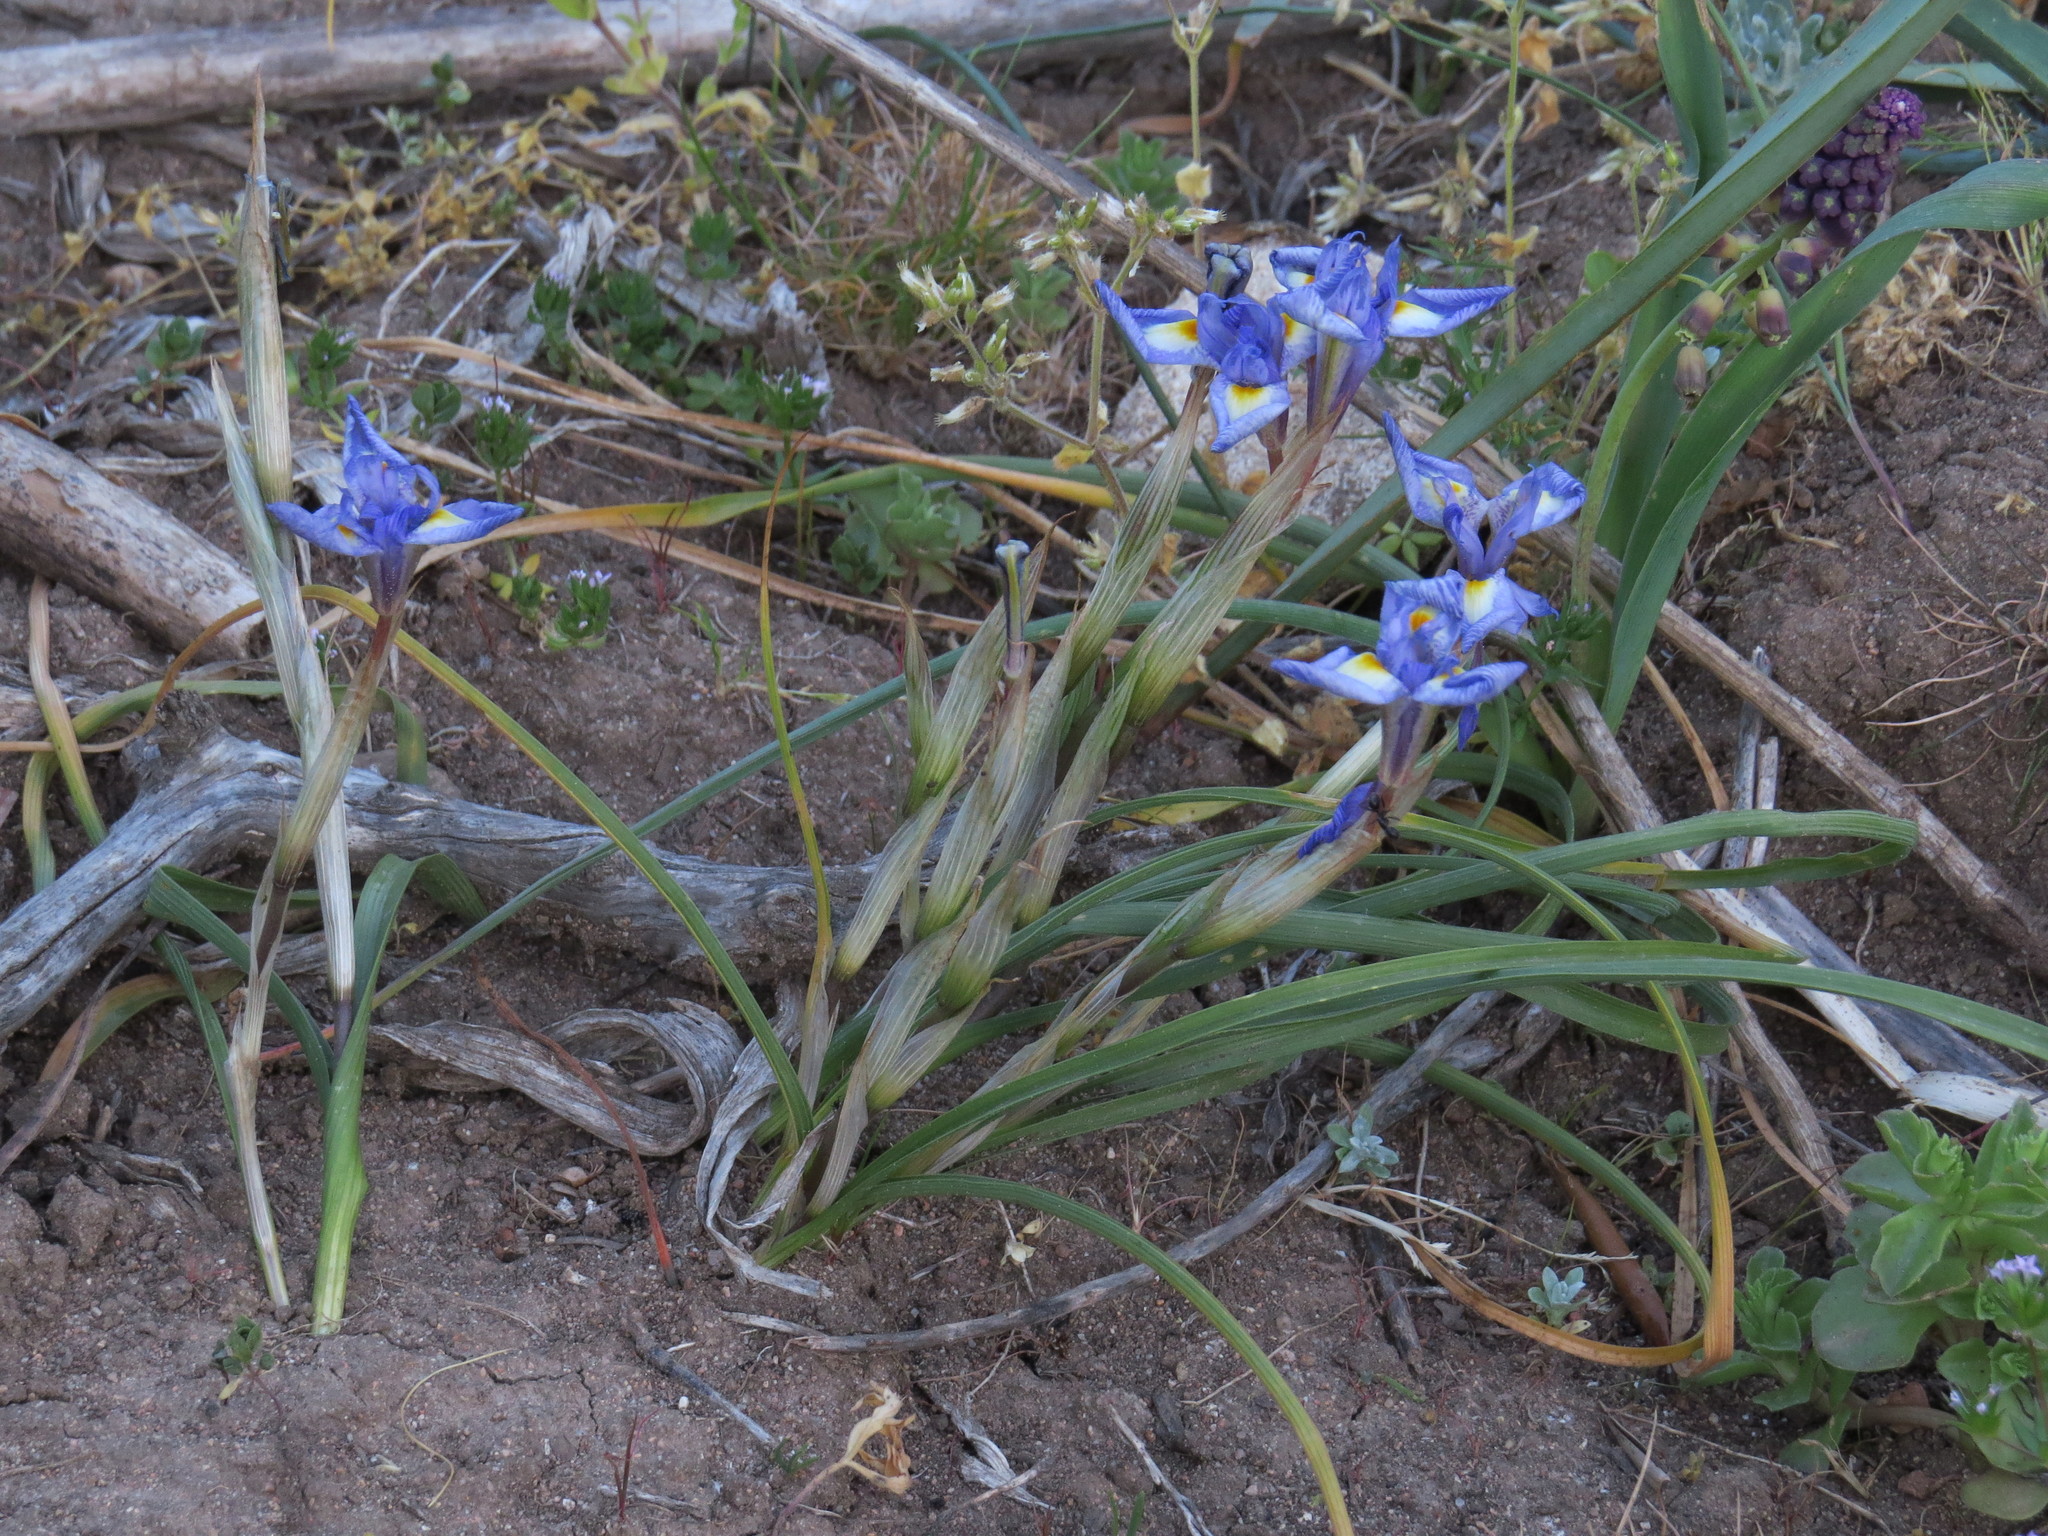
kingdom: Plantae
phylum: Tracheophyta
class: Liliopsida
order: Asparagales
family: Iridaceae
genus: Moraea
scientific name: Moraea sisyrinchium
